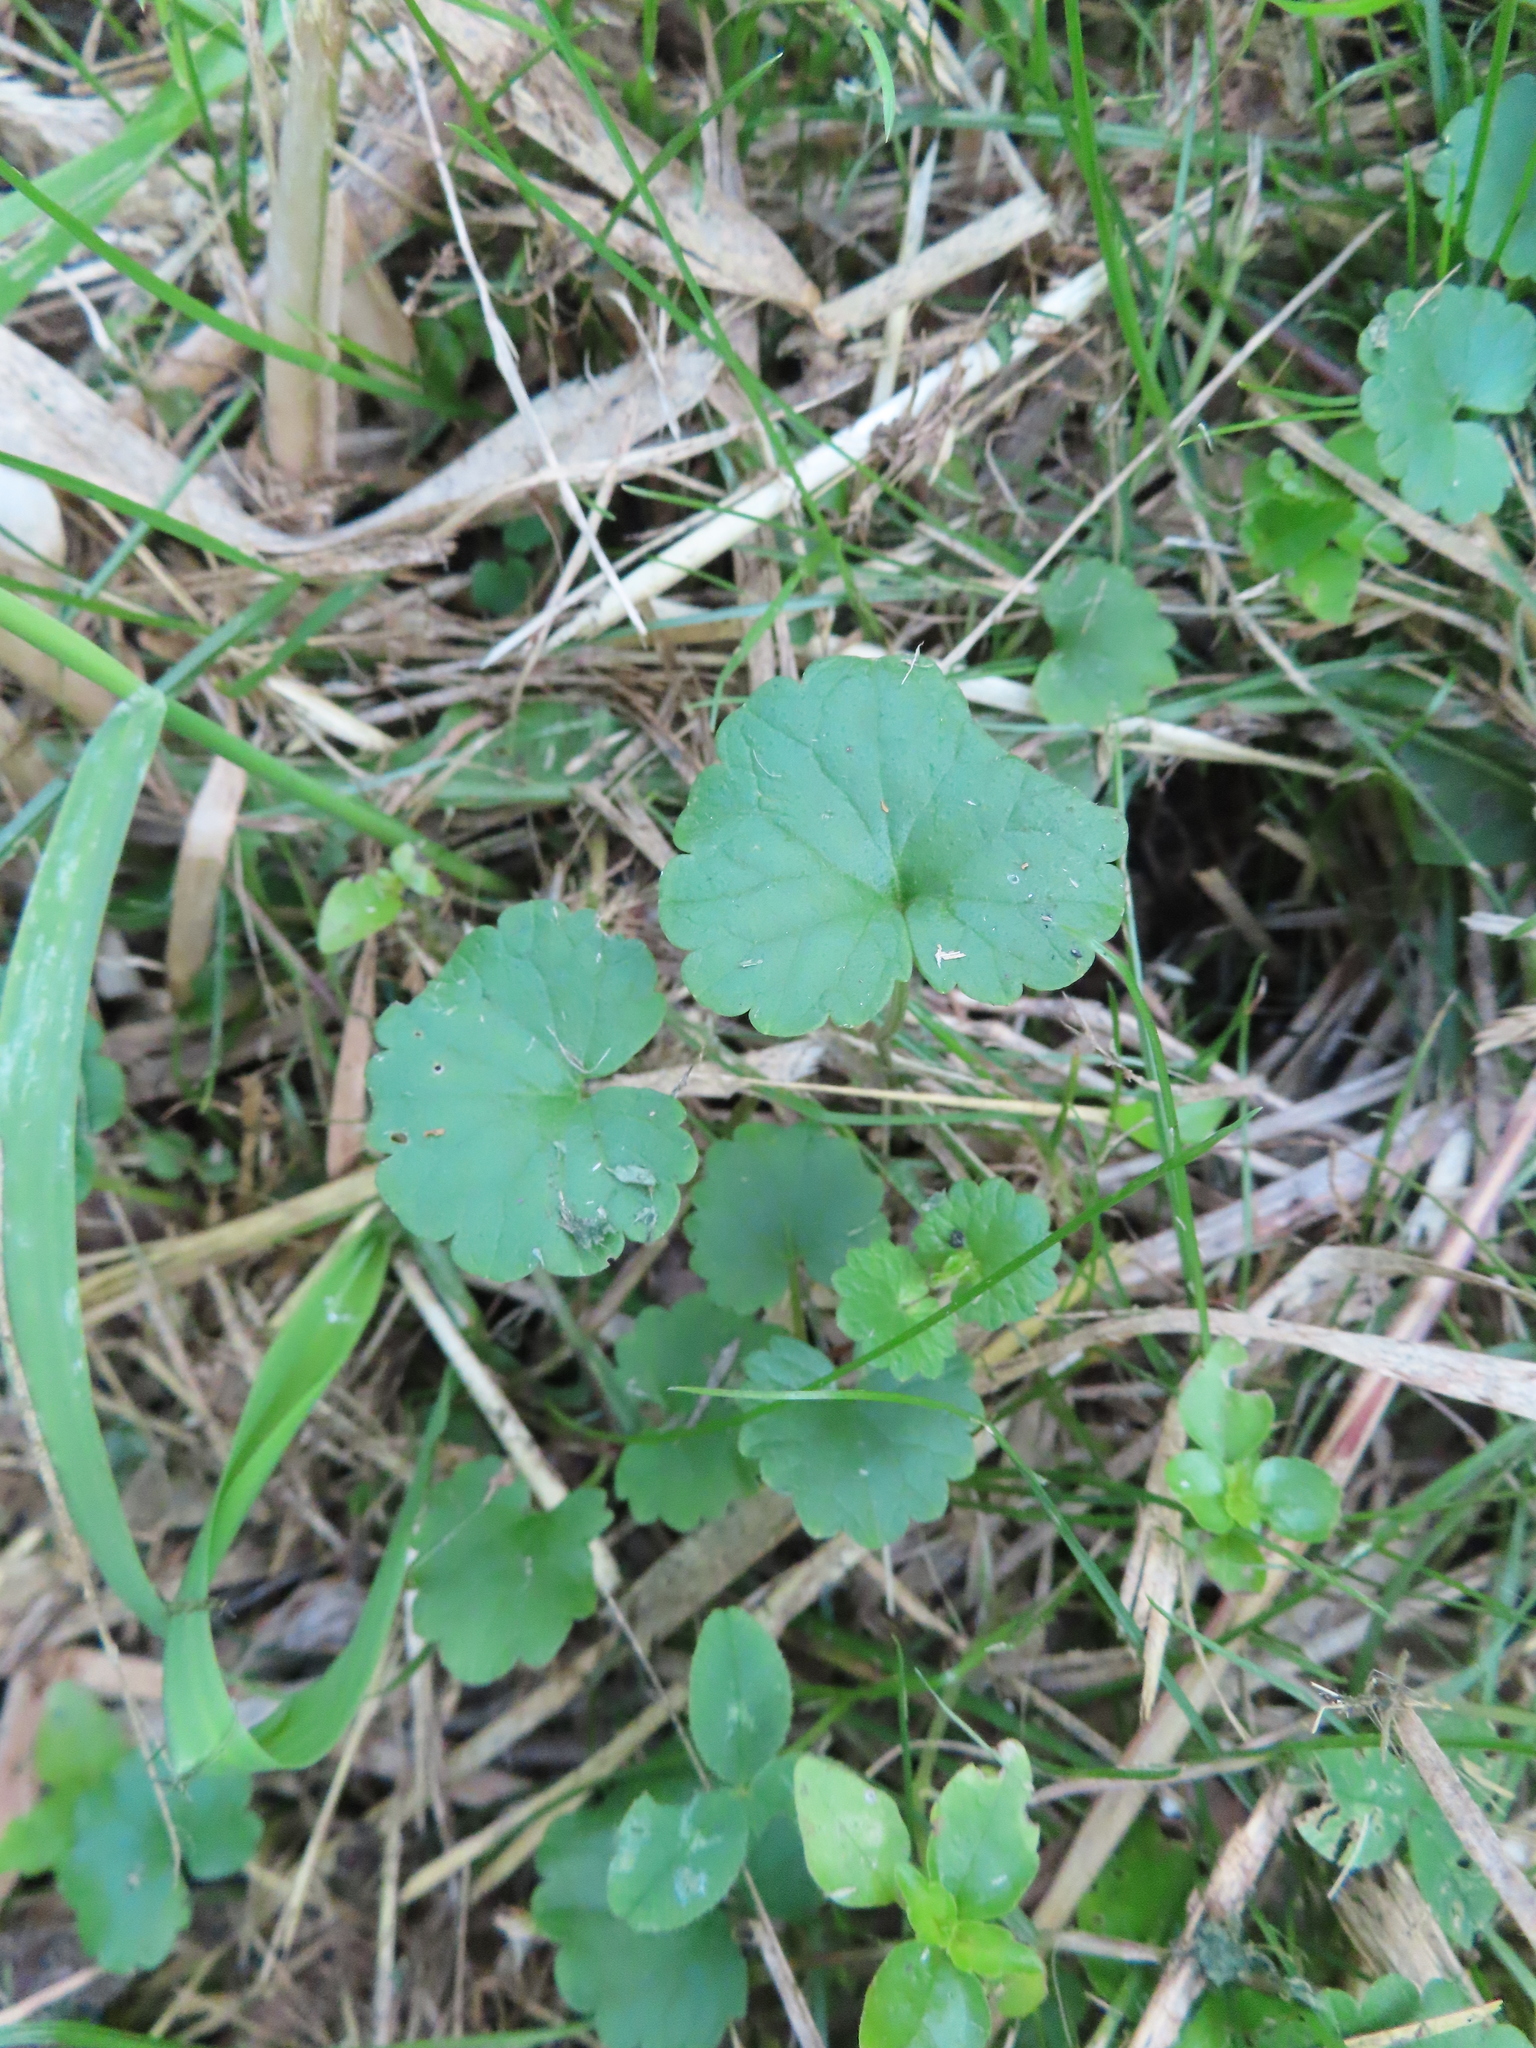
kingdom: Plantae
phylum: Tracheophyta
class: Magnoliopsida
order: Lamiales
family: Lamiaceae
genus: Glechoma
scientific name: Glechoma hederacea
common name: Ground ivy
